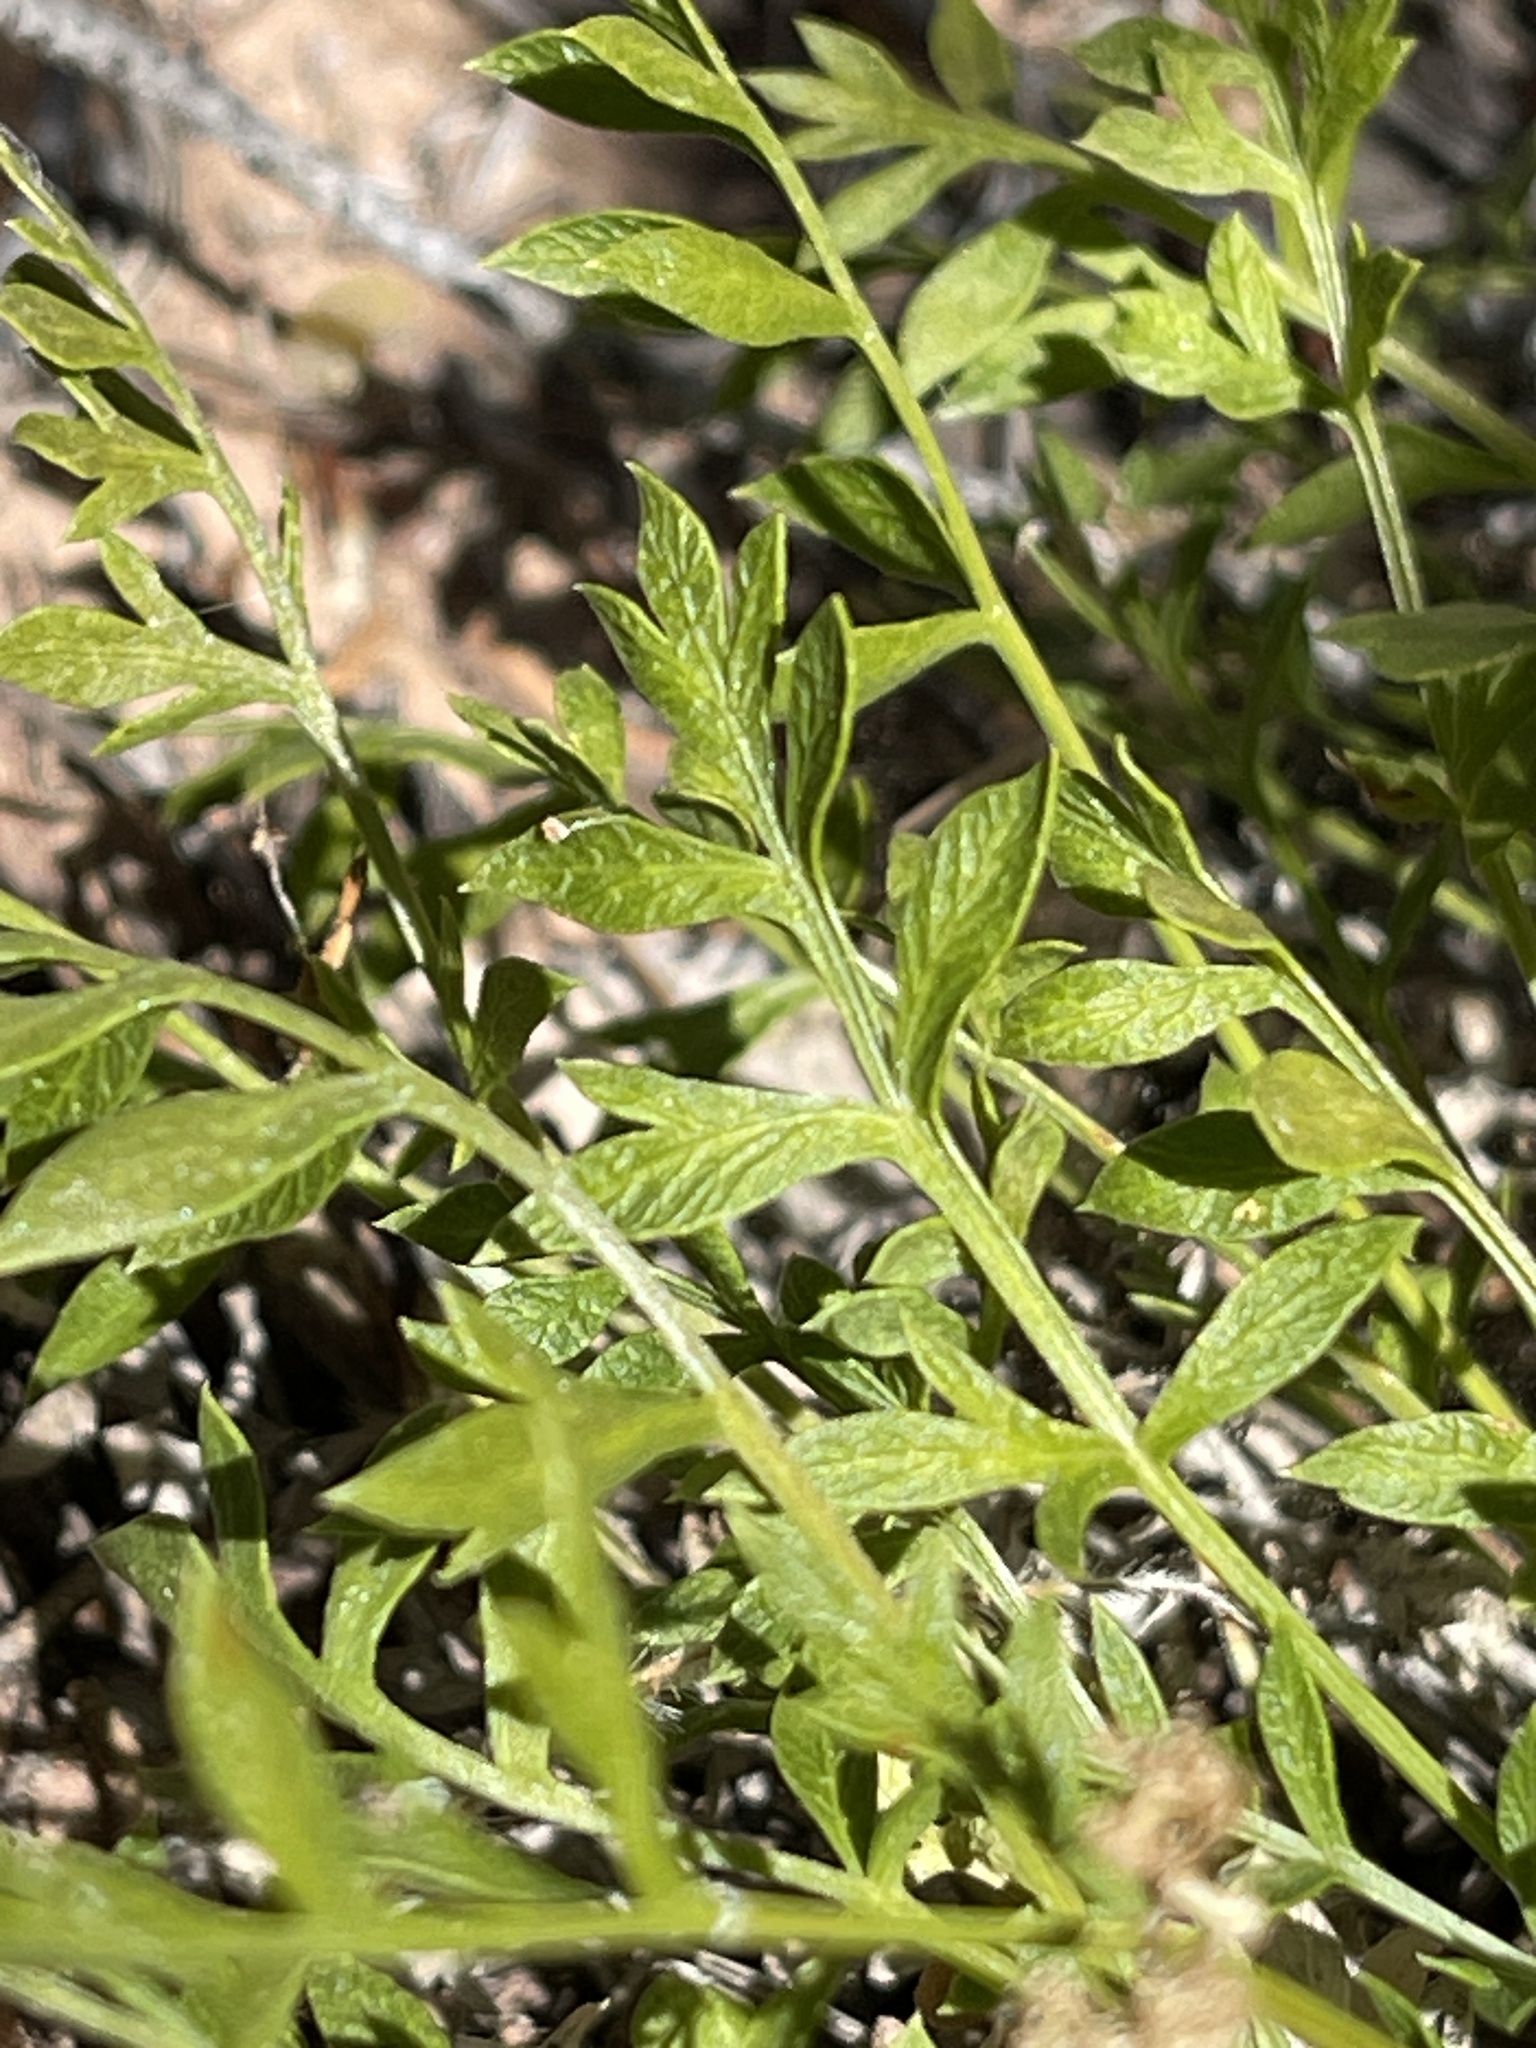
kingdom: Plantae
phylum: Tracheophyta
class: Magnoliopsida
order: Apiales
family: Apiaceae
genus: Lomatium
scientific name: Lomatium latilobum
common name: Canyonlands lomatium
